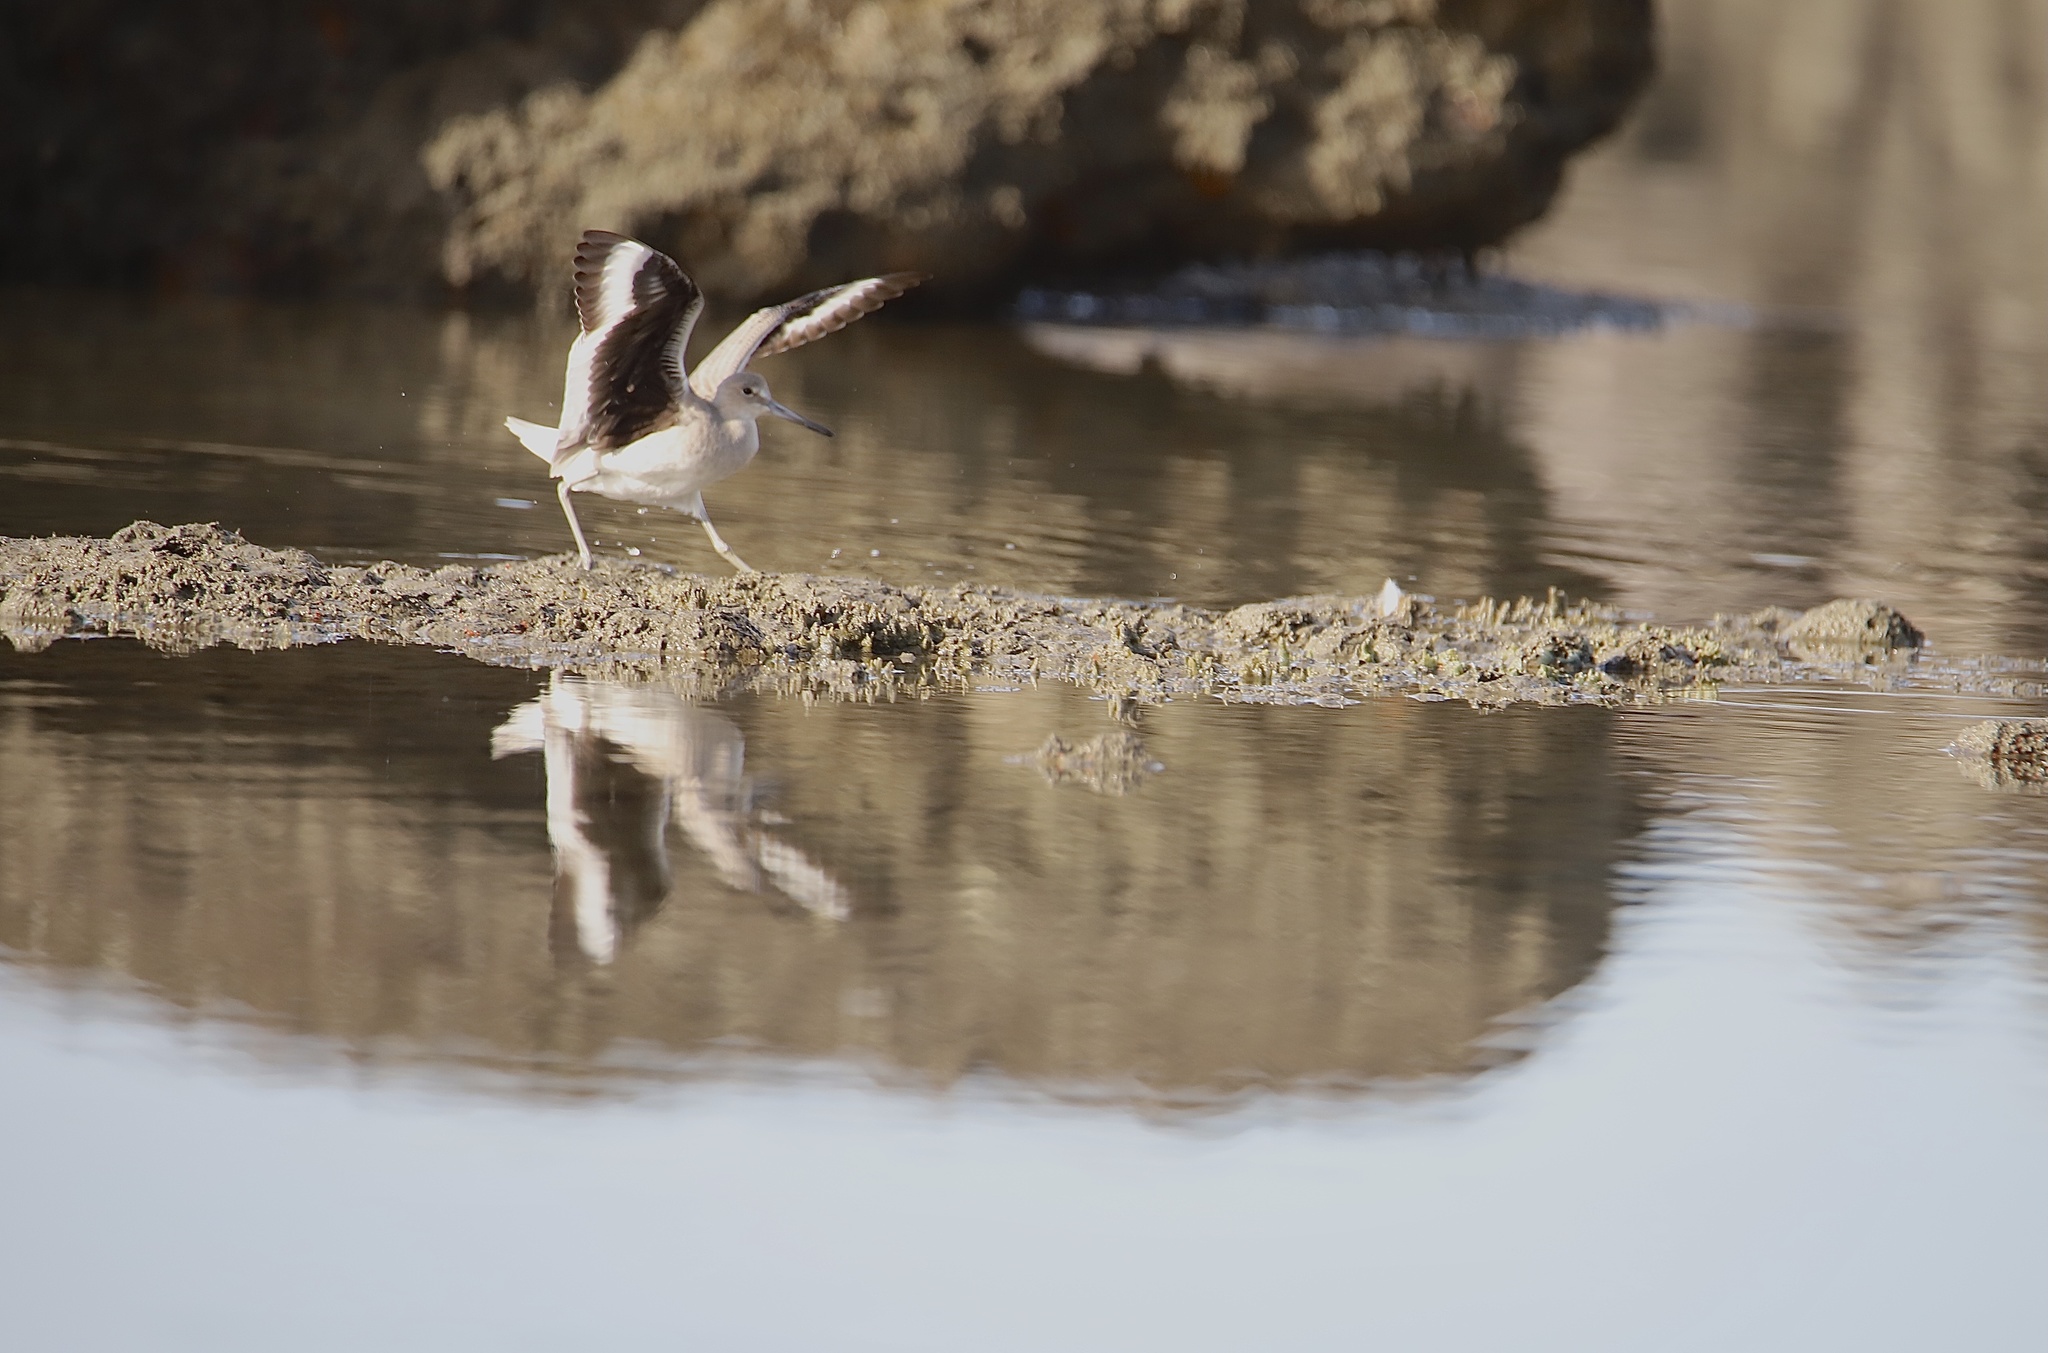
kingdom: Animalia
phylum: Chordata
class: Aves
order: Charadriiformes
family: Scolopacidae
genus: Tringa
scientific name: Tringa semipalmata
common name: Willet
